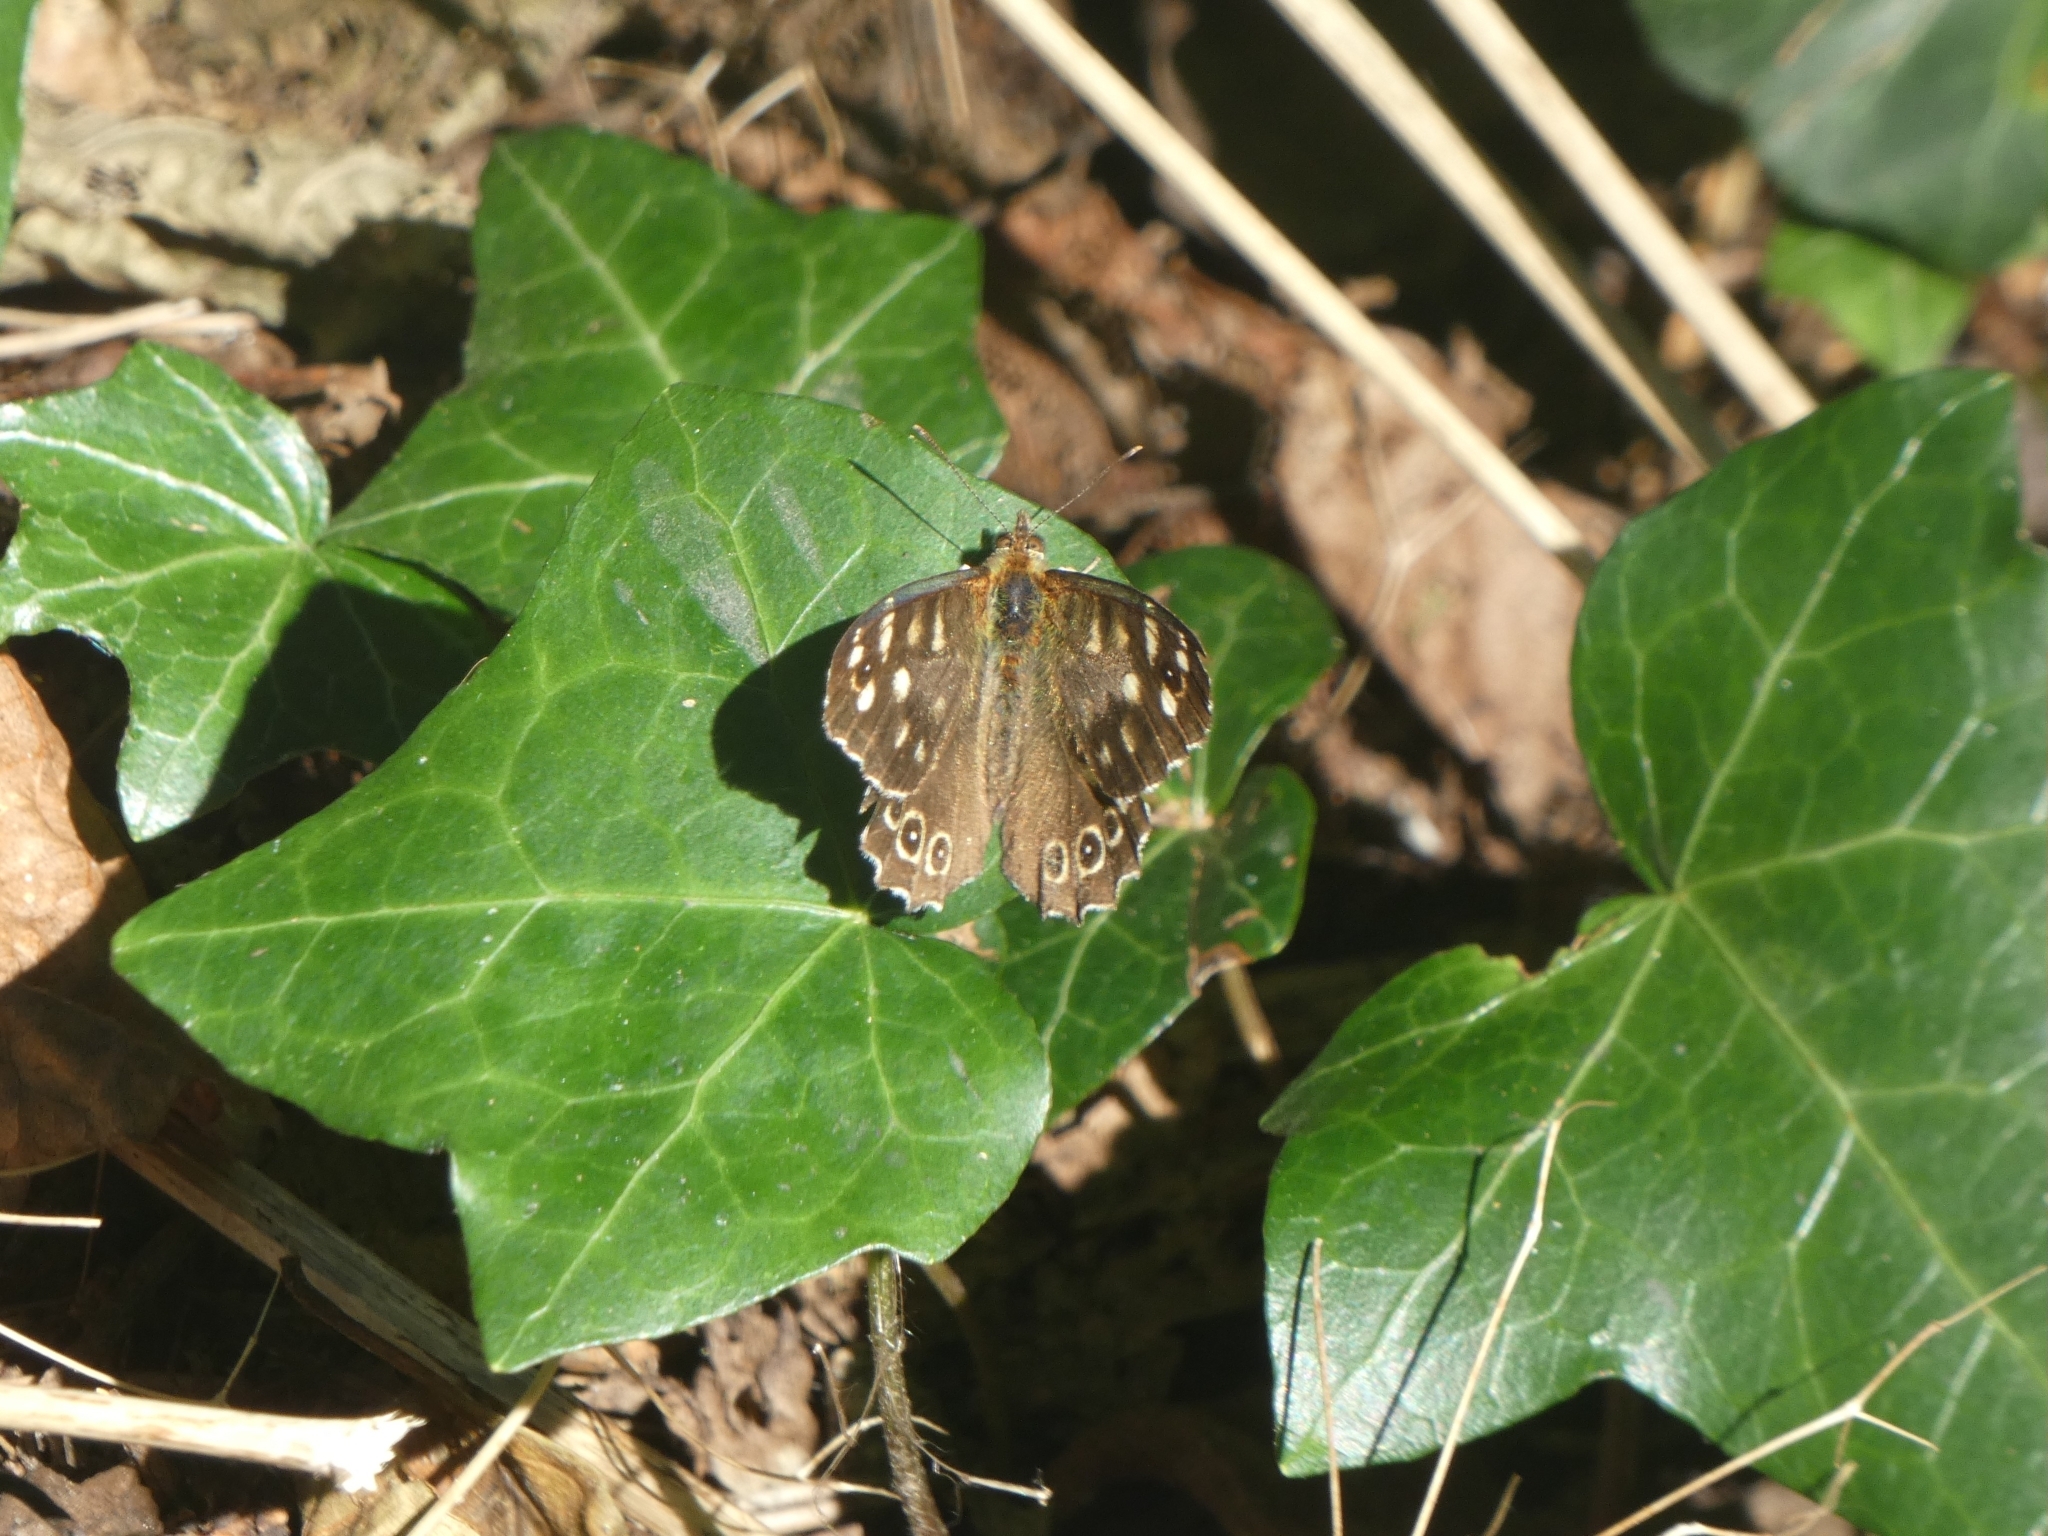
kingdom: Animalia
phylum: Arthropoda
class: Insecta
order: Lepidoptera
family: Nymphalidae
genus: Pararge
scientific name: Pararge aegeria
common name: Speckled wood
